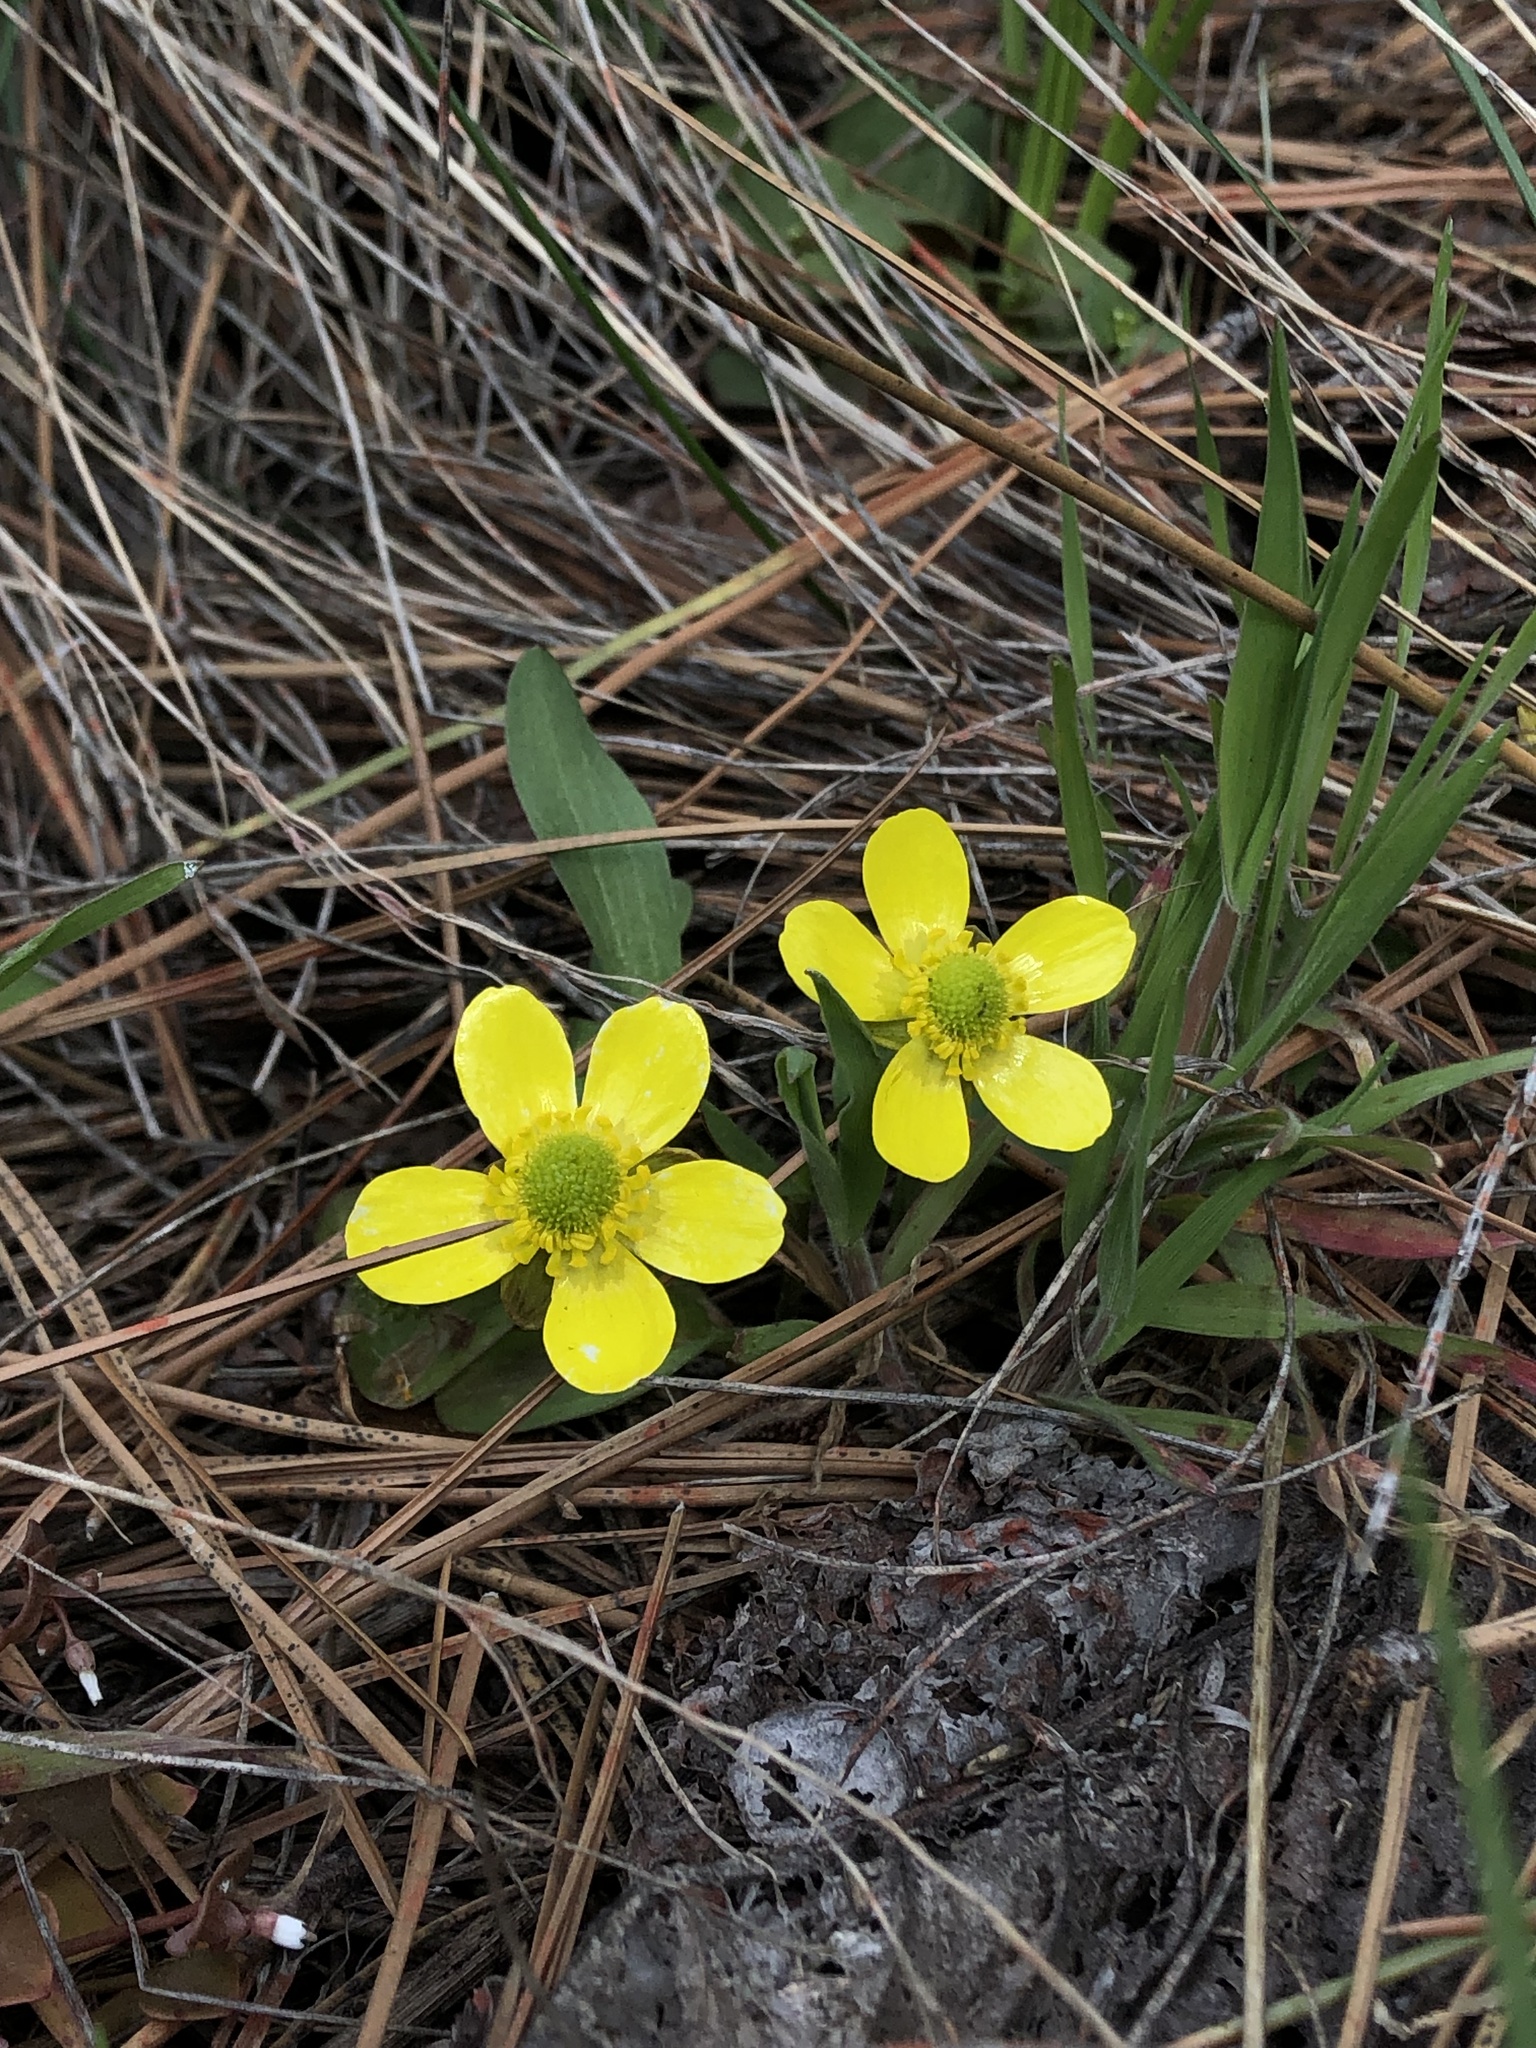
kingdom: Plantae
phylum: Tracheophyta
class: Magnoliopsida
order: Ranunculales
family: Ranunculaceae
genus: Ranunculus
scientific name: Ranunculus glaberrimus
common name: Sagebrush buttercup
